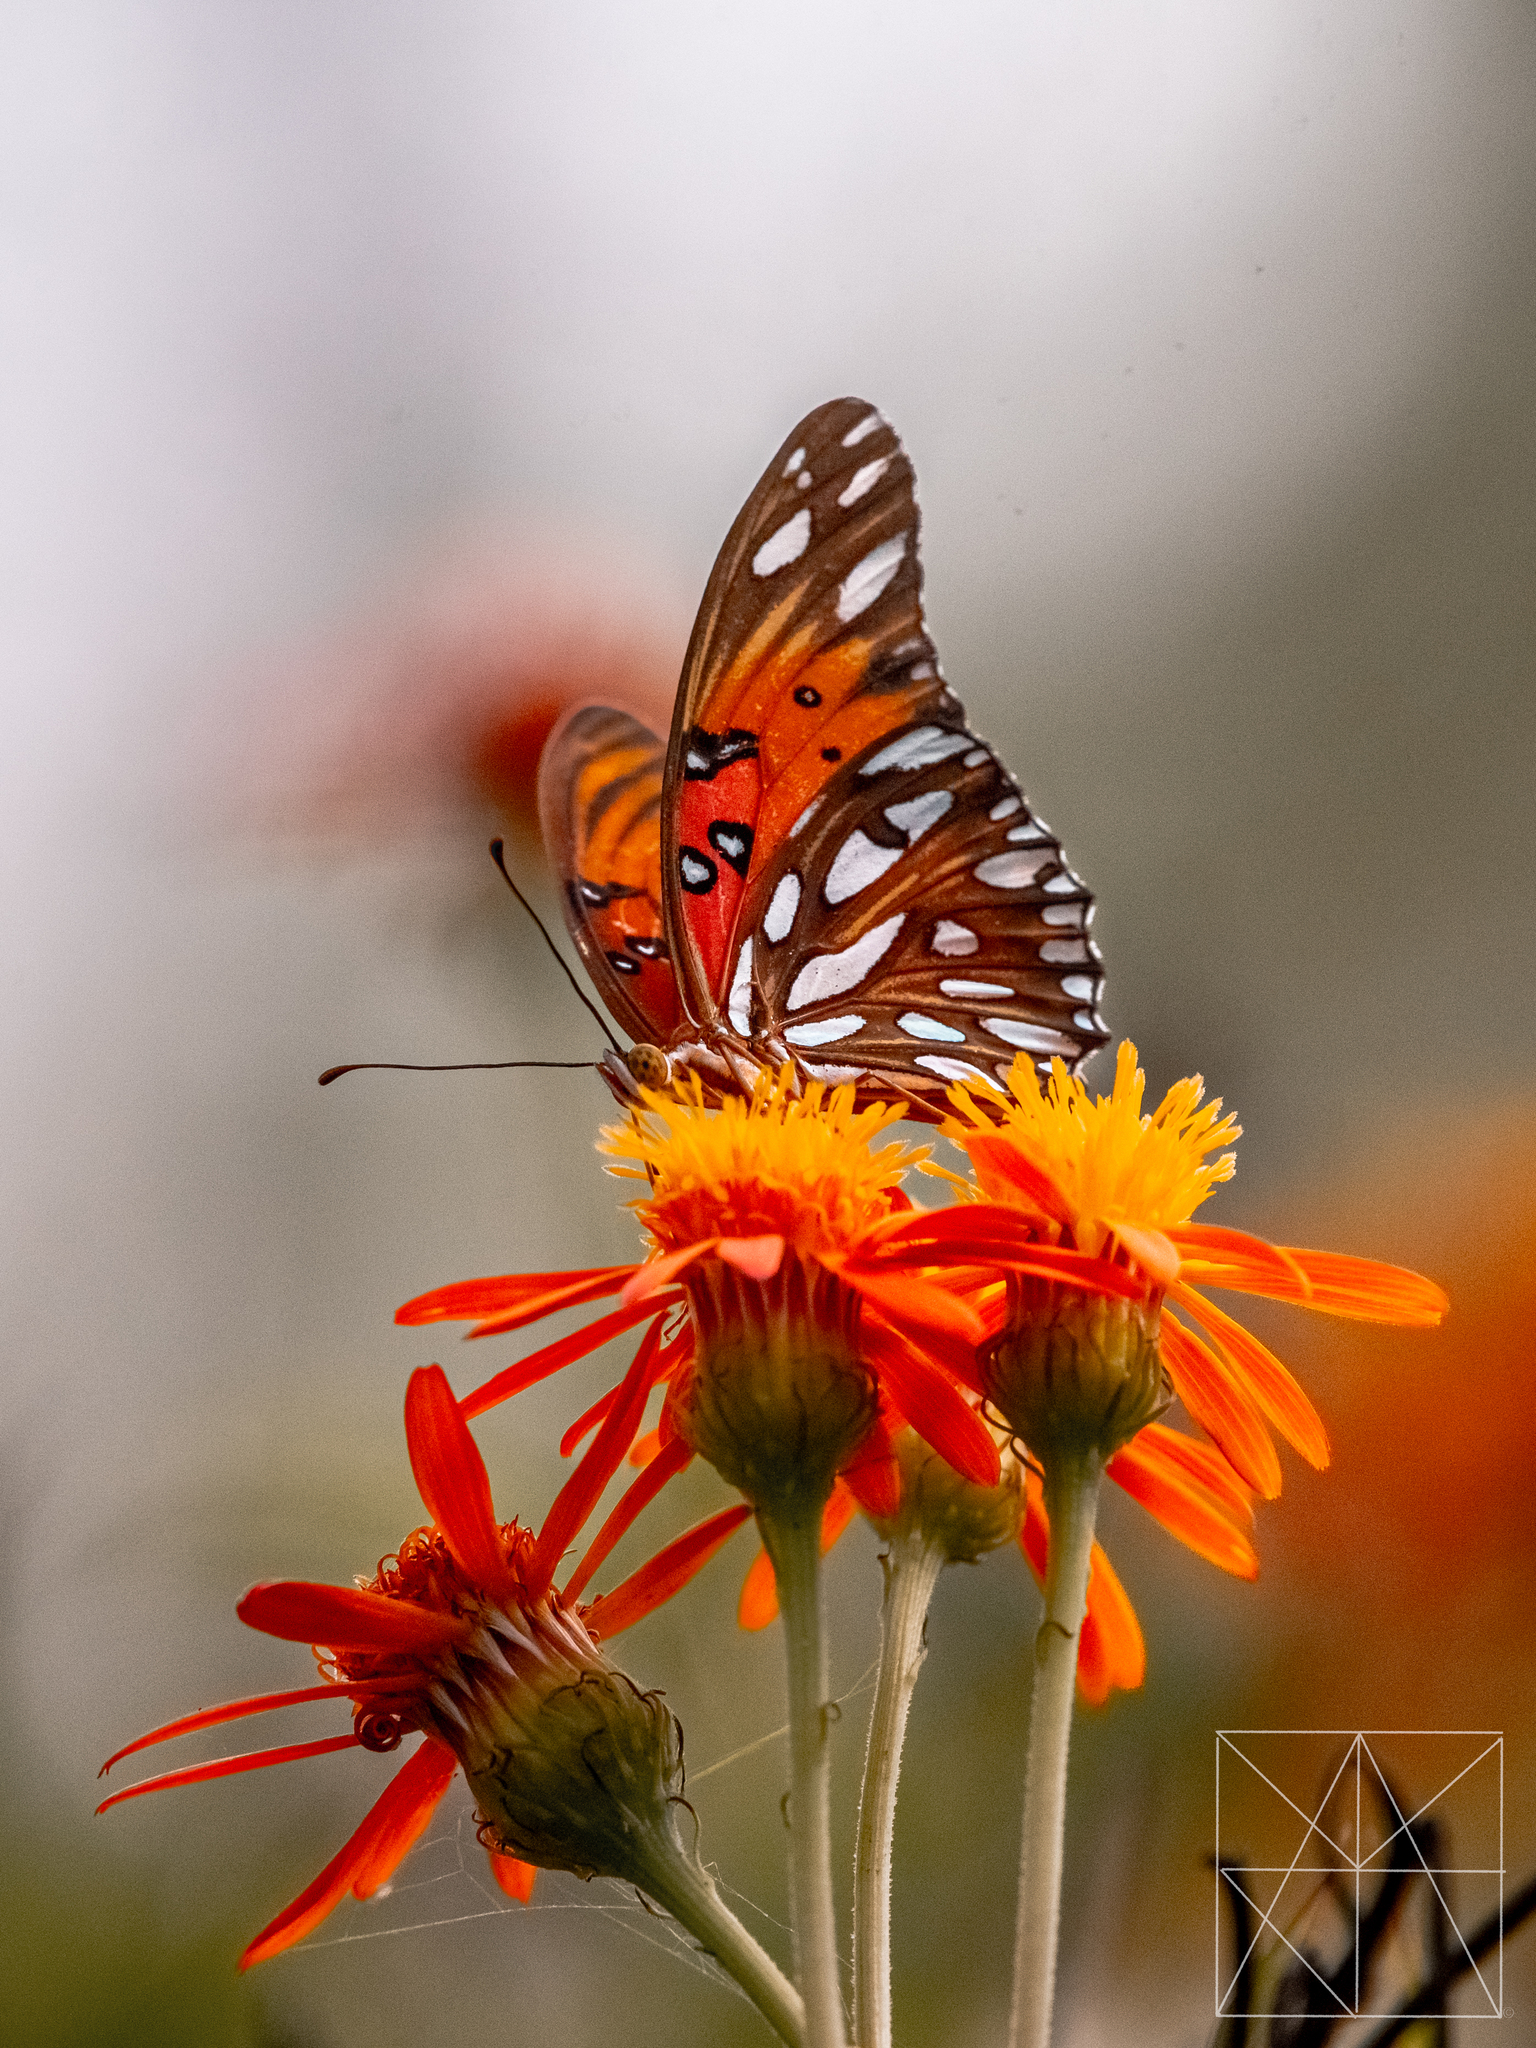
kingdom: Animalia
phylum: Arthropoda
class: Insecta
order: Lepidoptera
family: Nymphalidae
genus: Dione
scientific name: Dione vanillae
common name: Gulf fritillary
